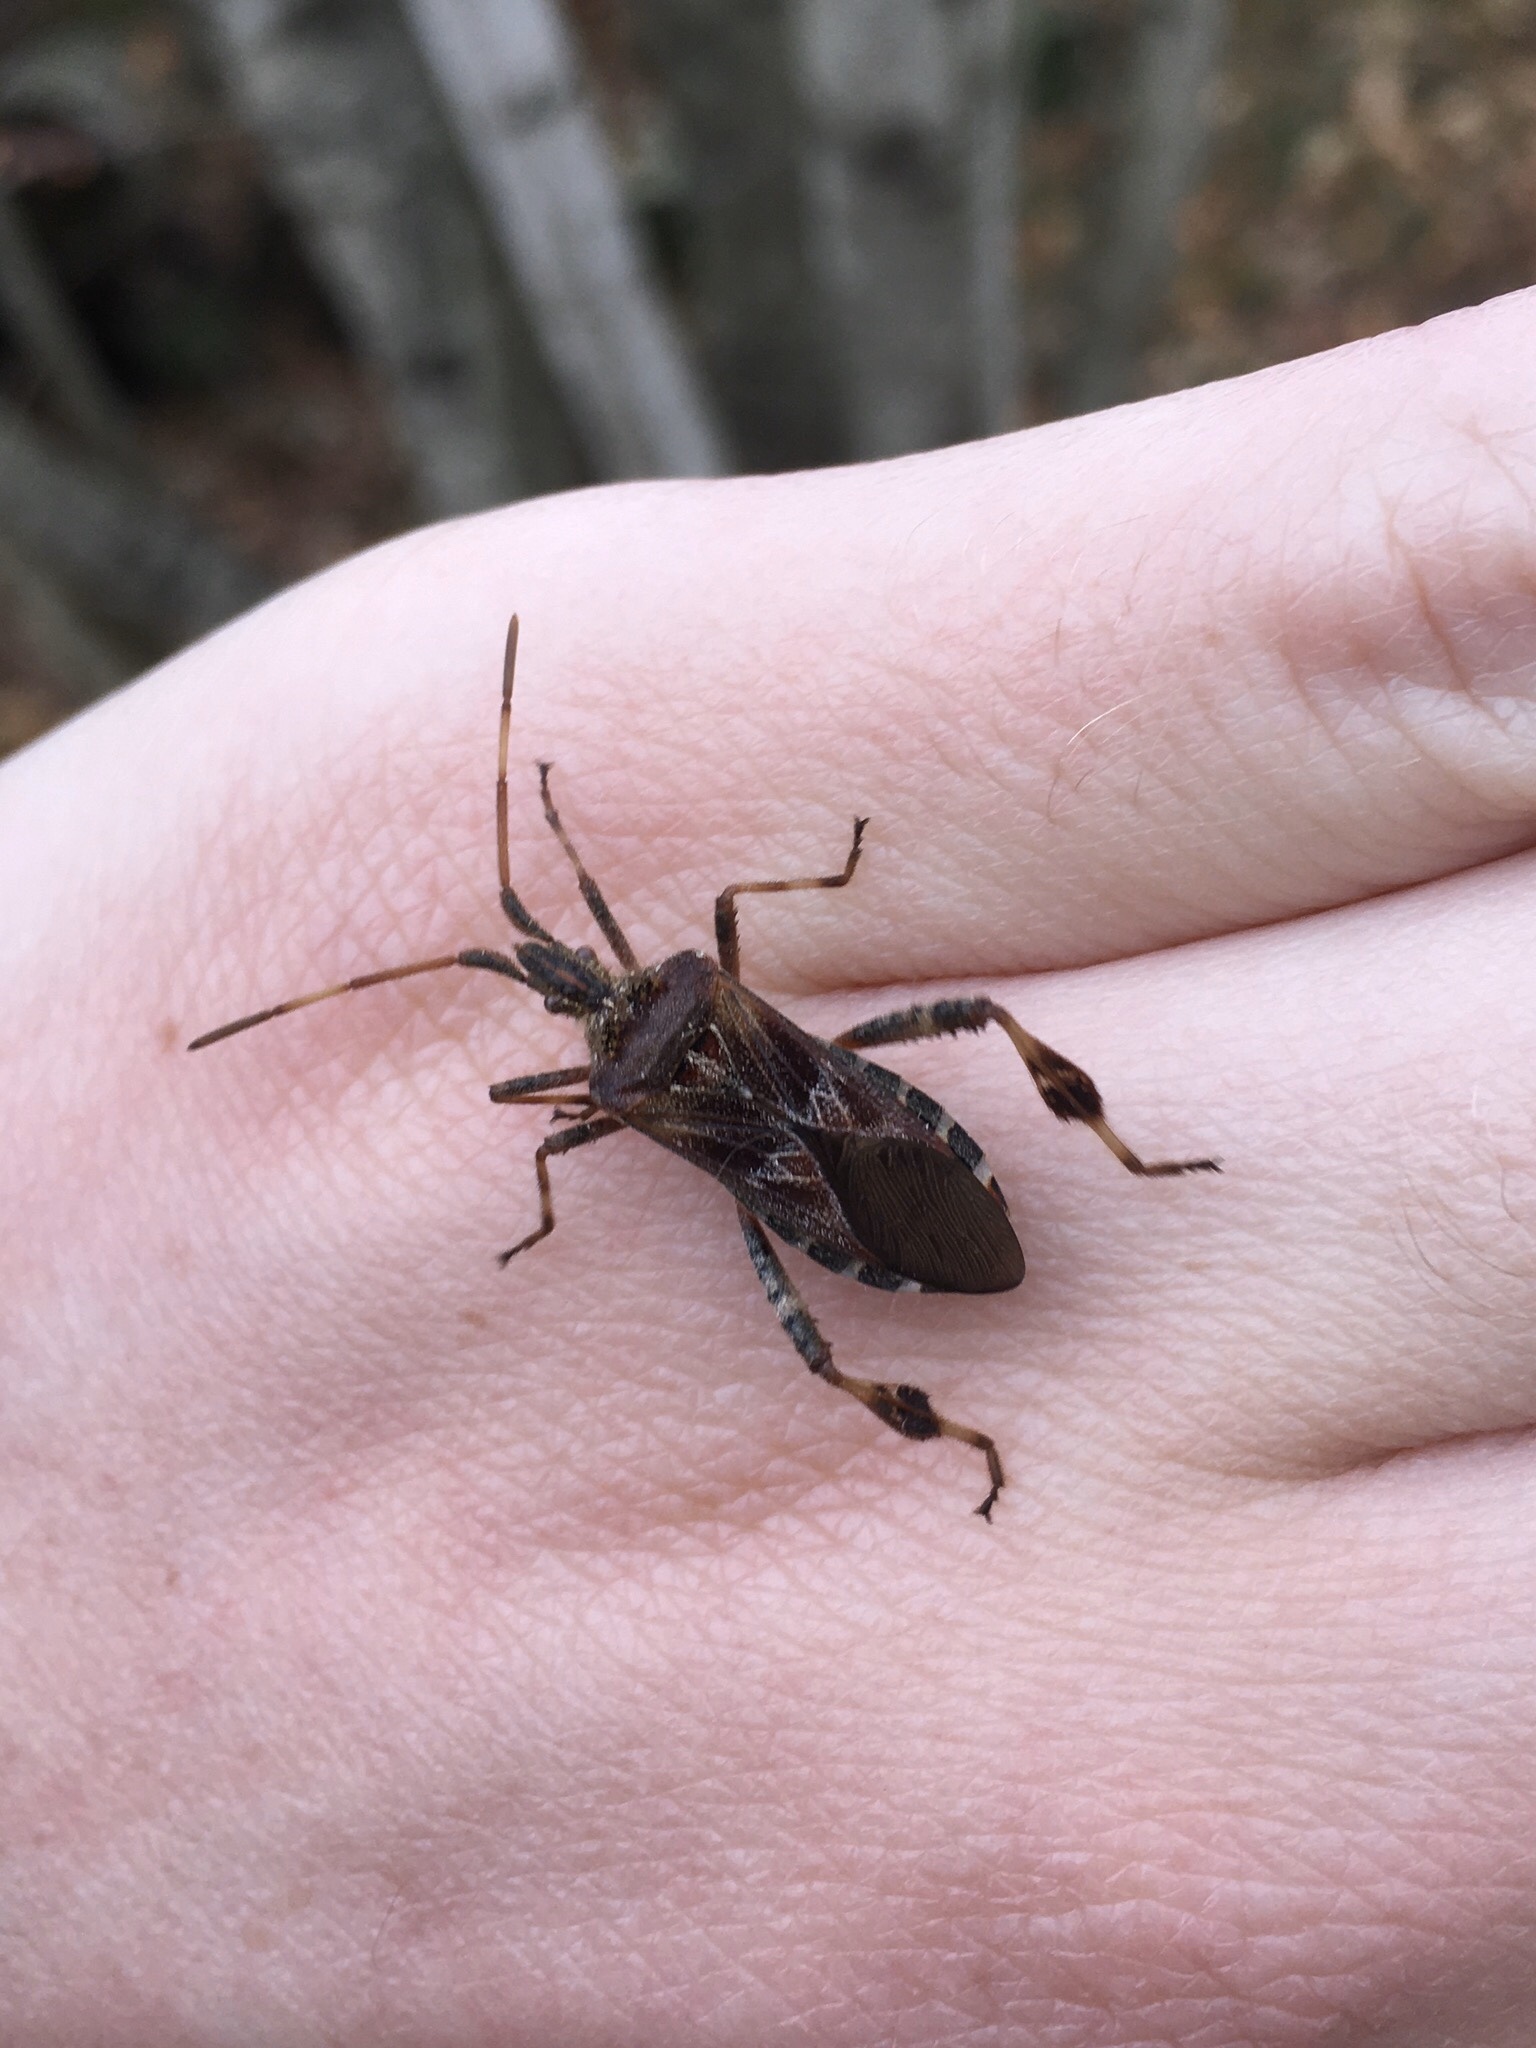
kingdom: Animalia
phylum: Arthropoda
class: Insecta
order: Hemiptera
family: Coreidae
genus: Leptoglossus
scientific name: Leptoglossus occidentalis
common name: Western conifer-seed bug
